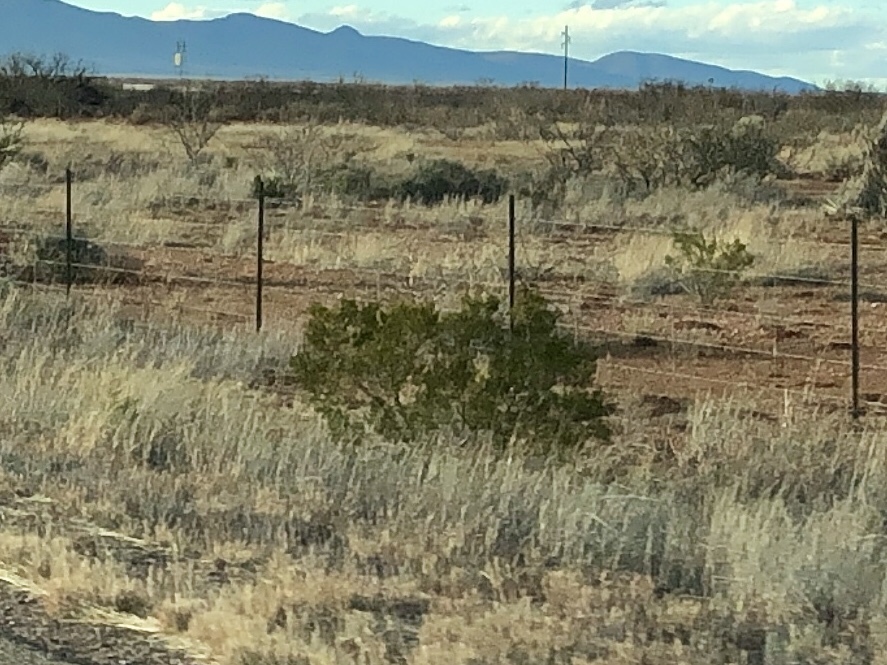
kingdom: Plantae
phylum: Tracheophyta
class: Magnoliopsida
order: Zygophyllales
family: Zygophyllaceae
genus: Larrea
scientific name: Larrea tridentata
